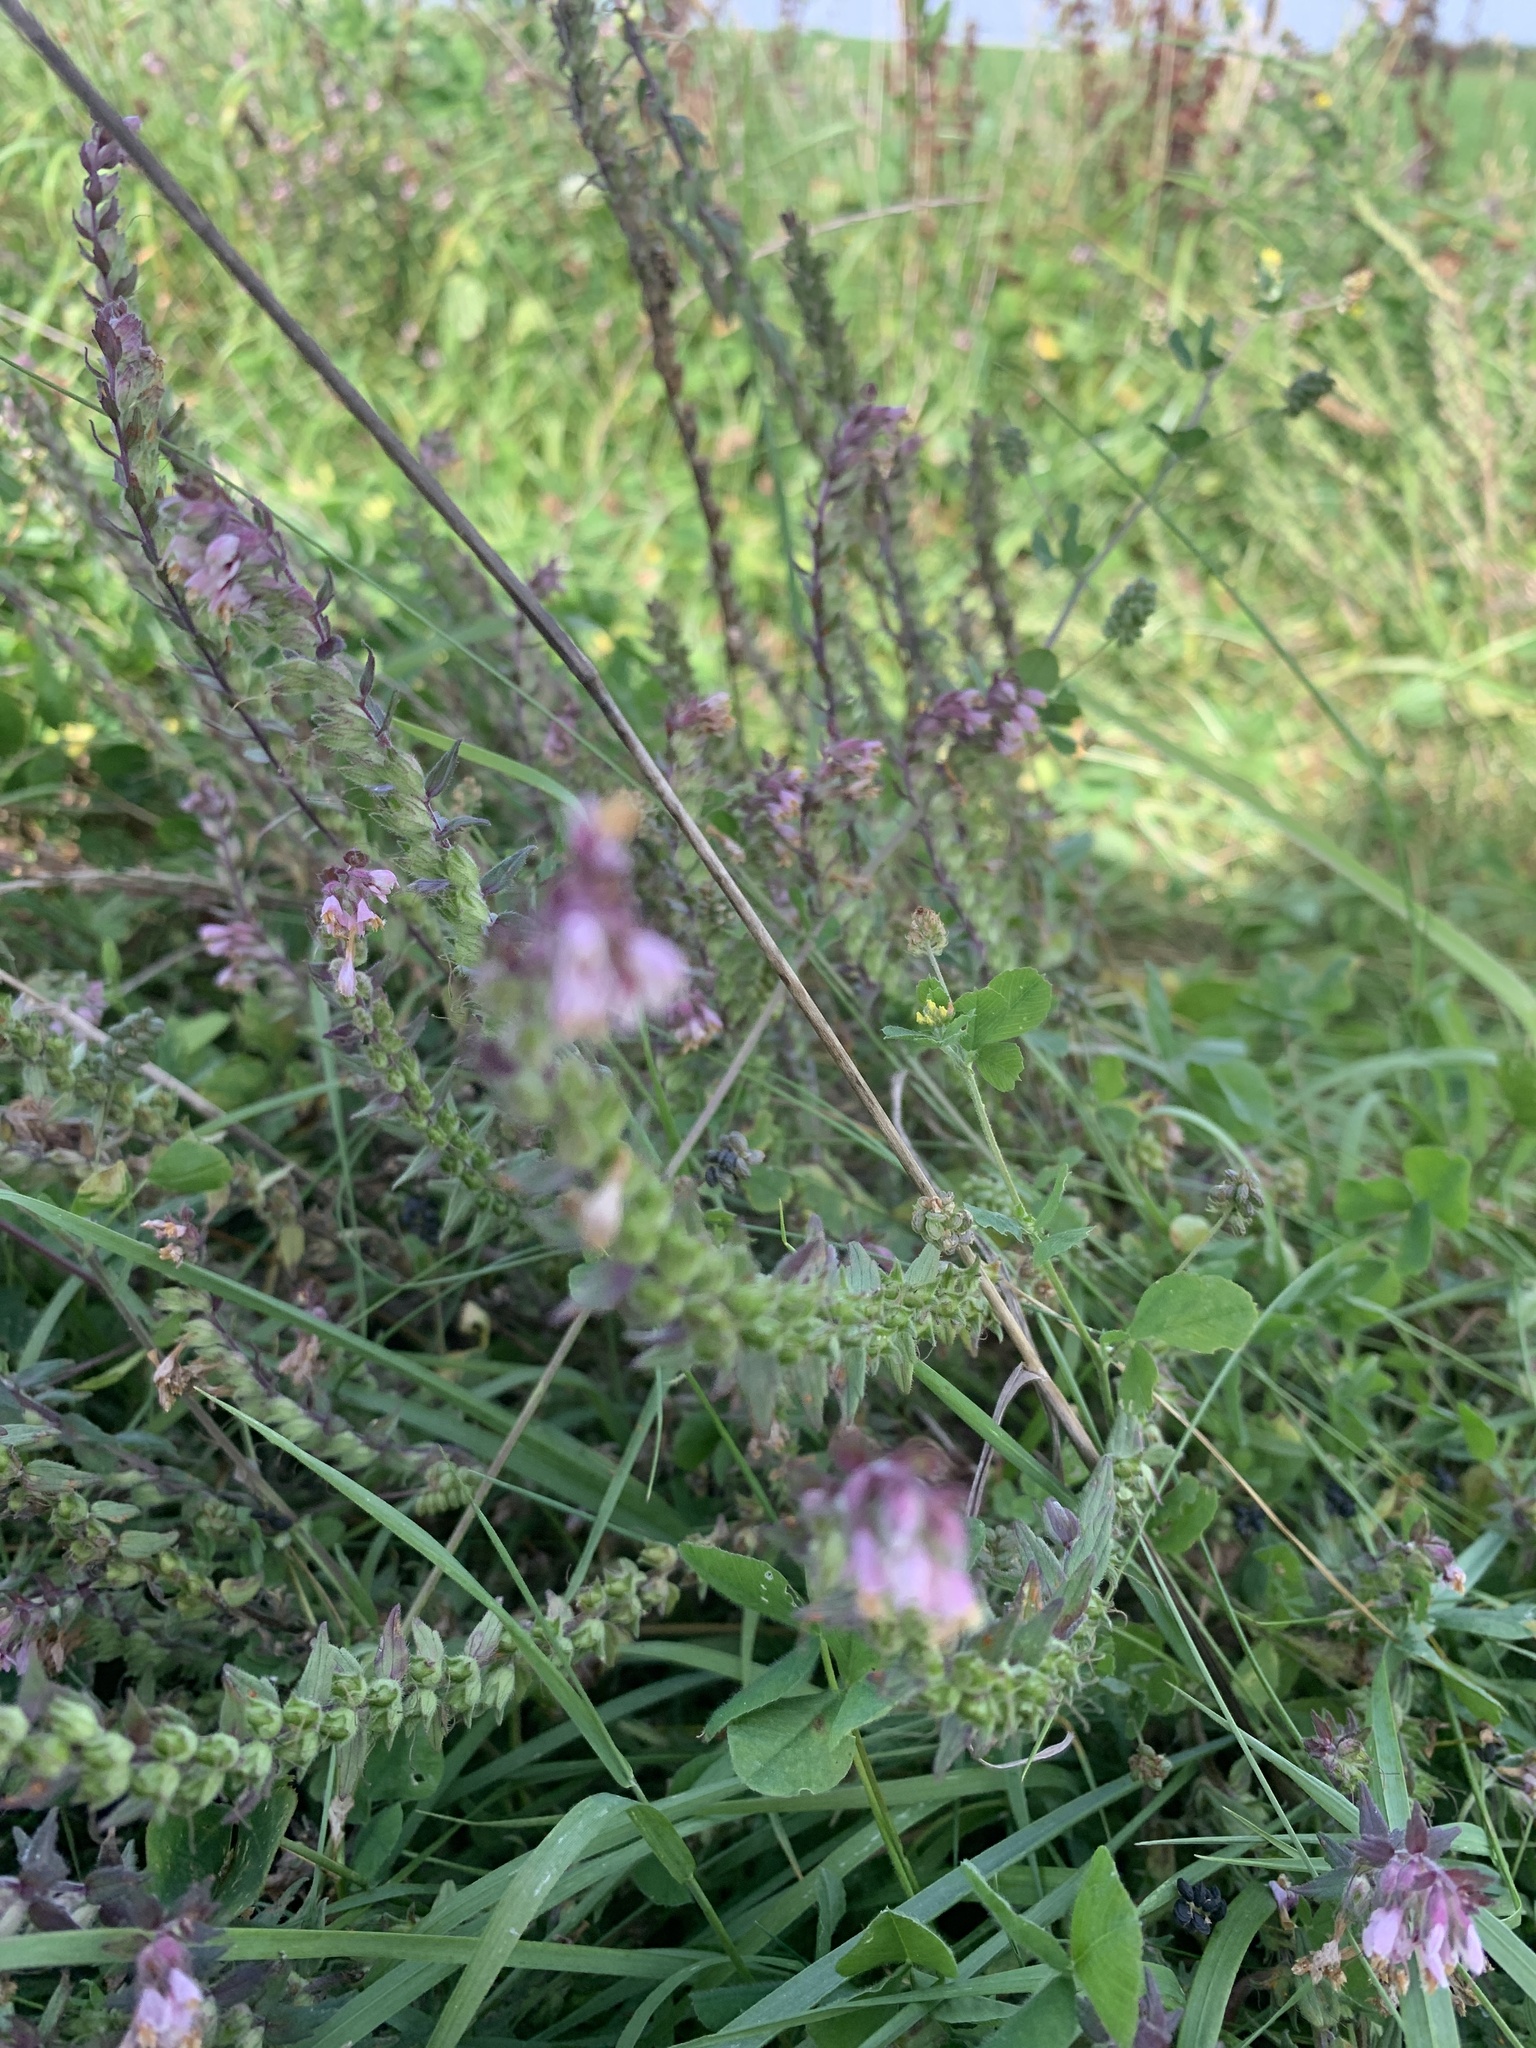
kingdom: Plantae
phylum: Tracheophyta
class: Magnoliopsida
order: Lamiales
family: Orobanchaceae
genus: Odontites
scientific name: Odontites vulgaris
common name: Broomrape
